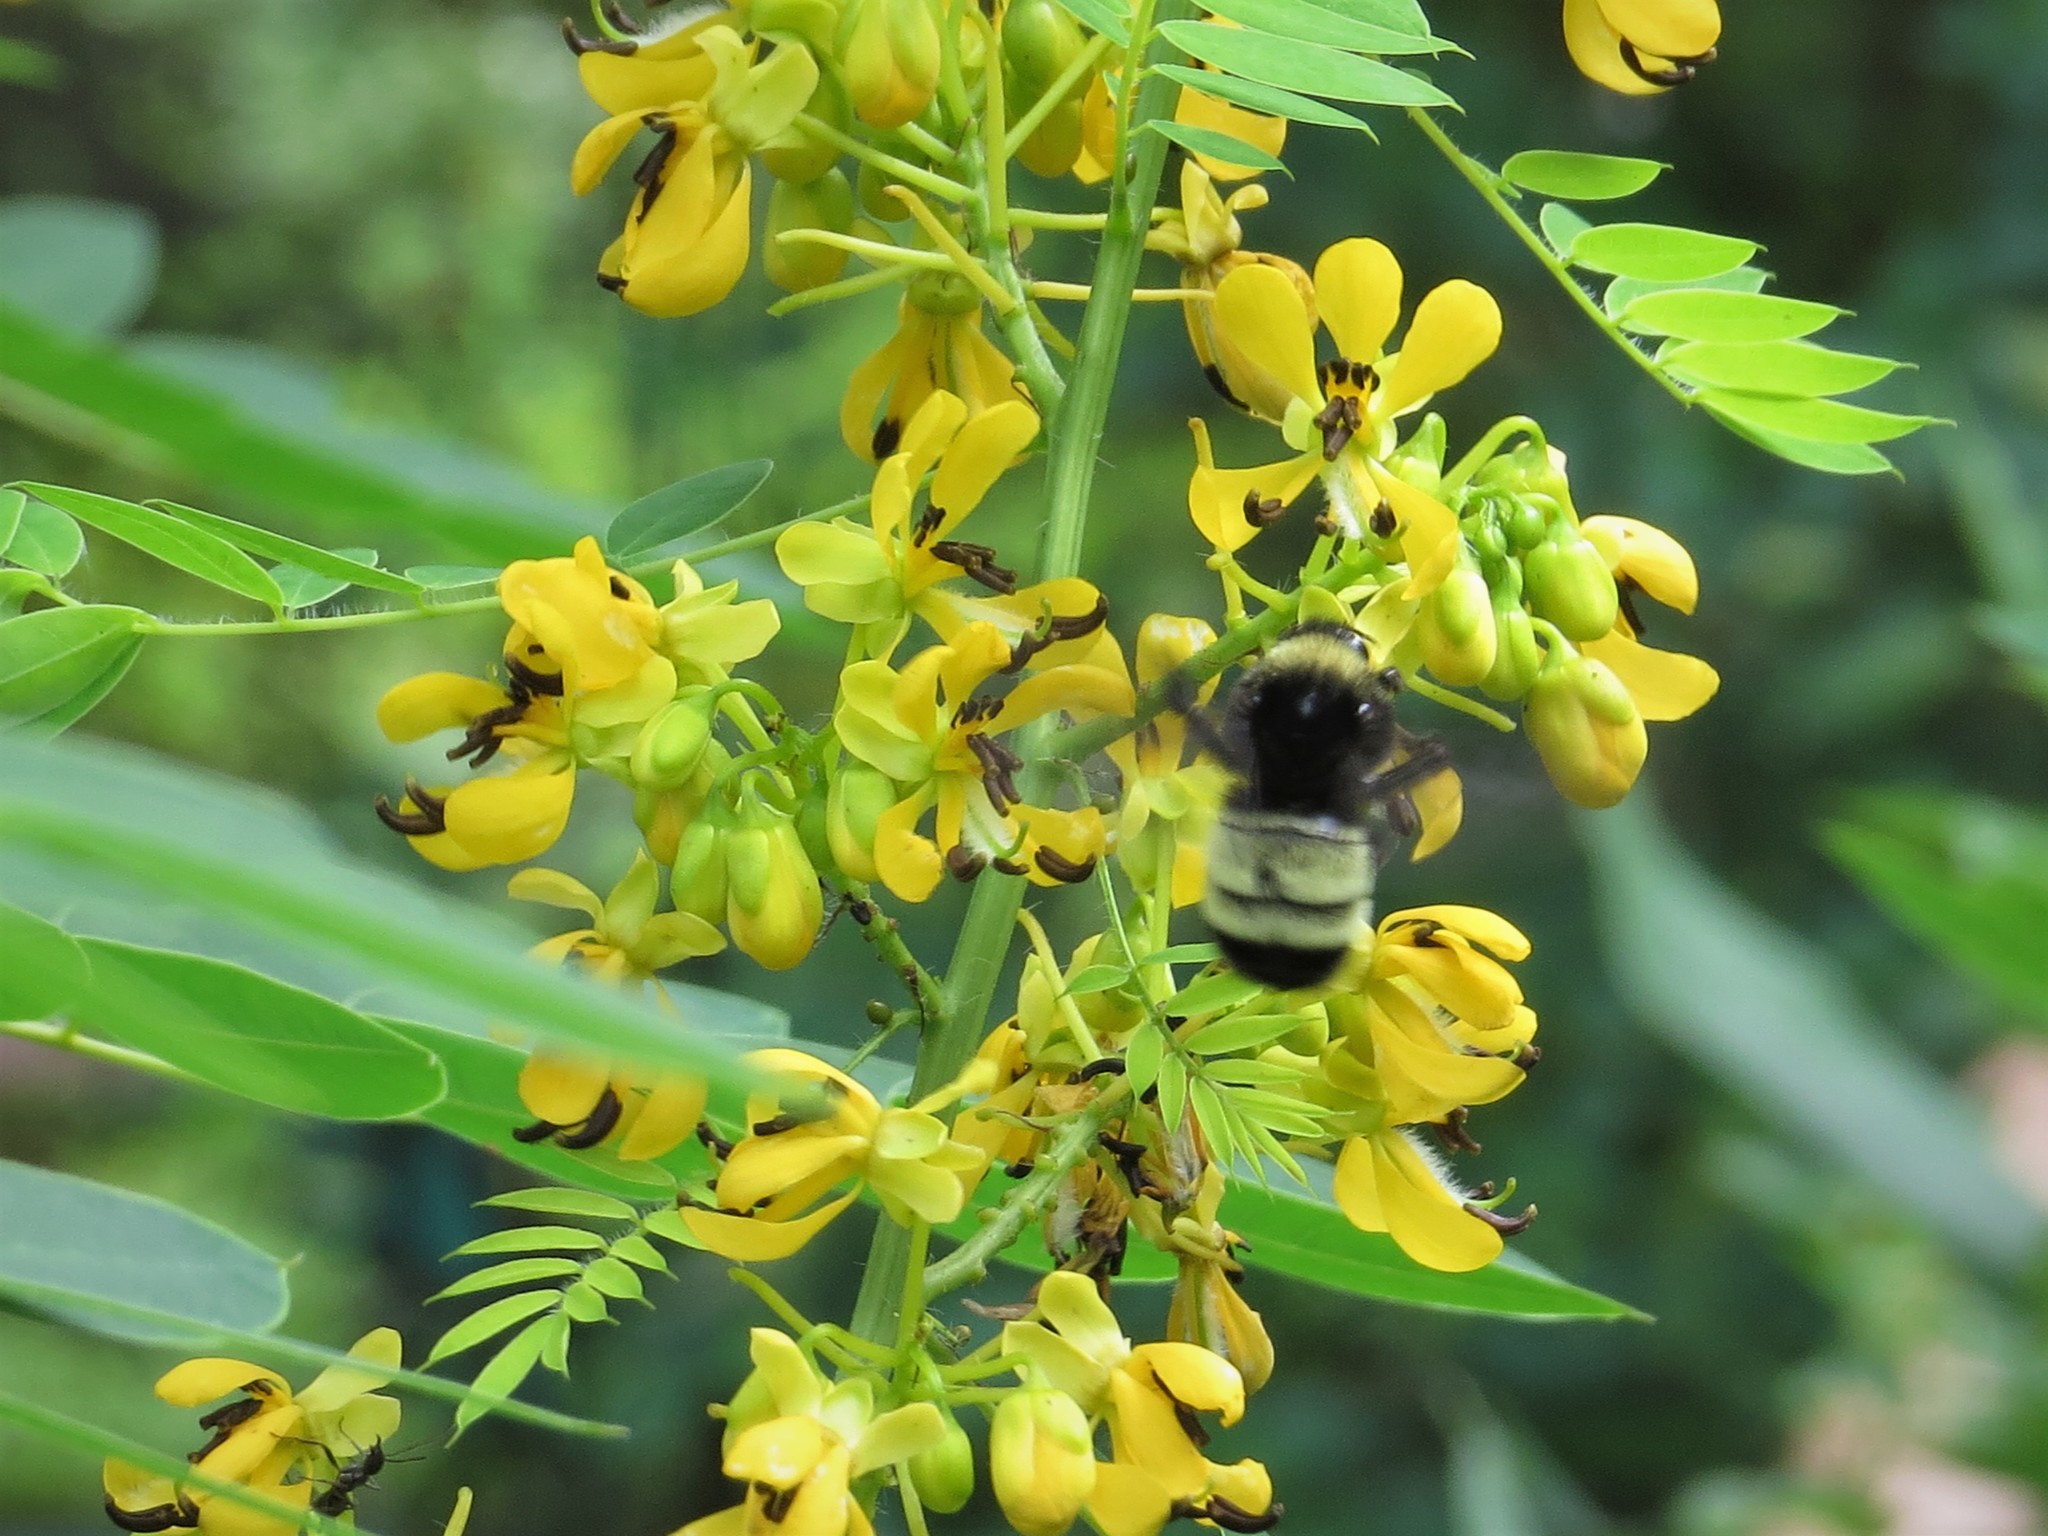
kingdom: Animalia
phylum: Arthropoda
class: Insecta
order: Hymenoptera
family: Apidae
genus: Bombus
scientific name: Bombus pensylvanicus
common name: Bumble bee
